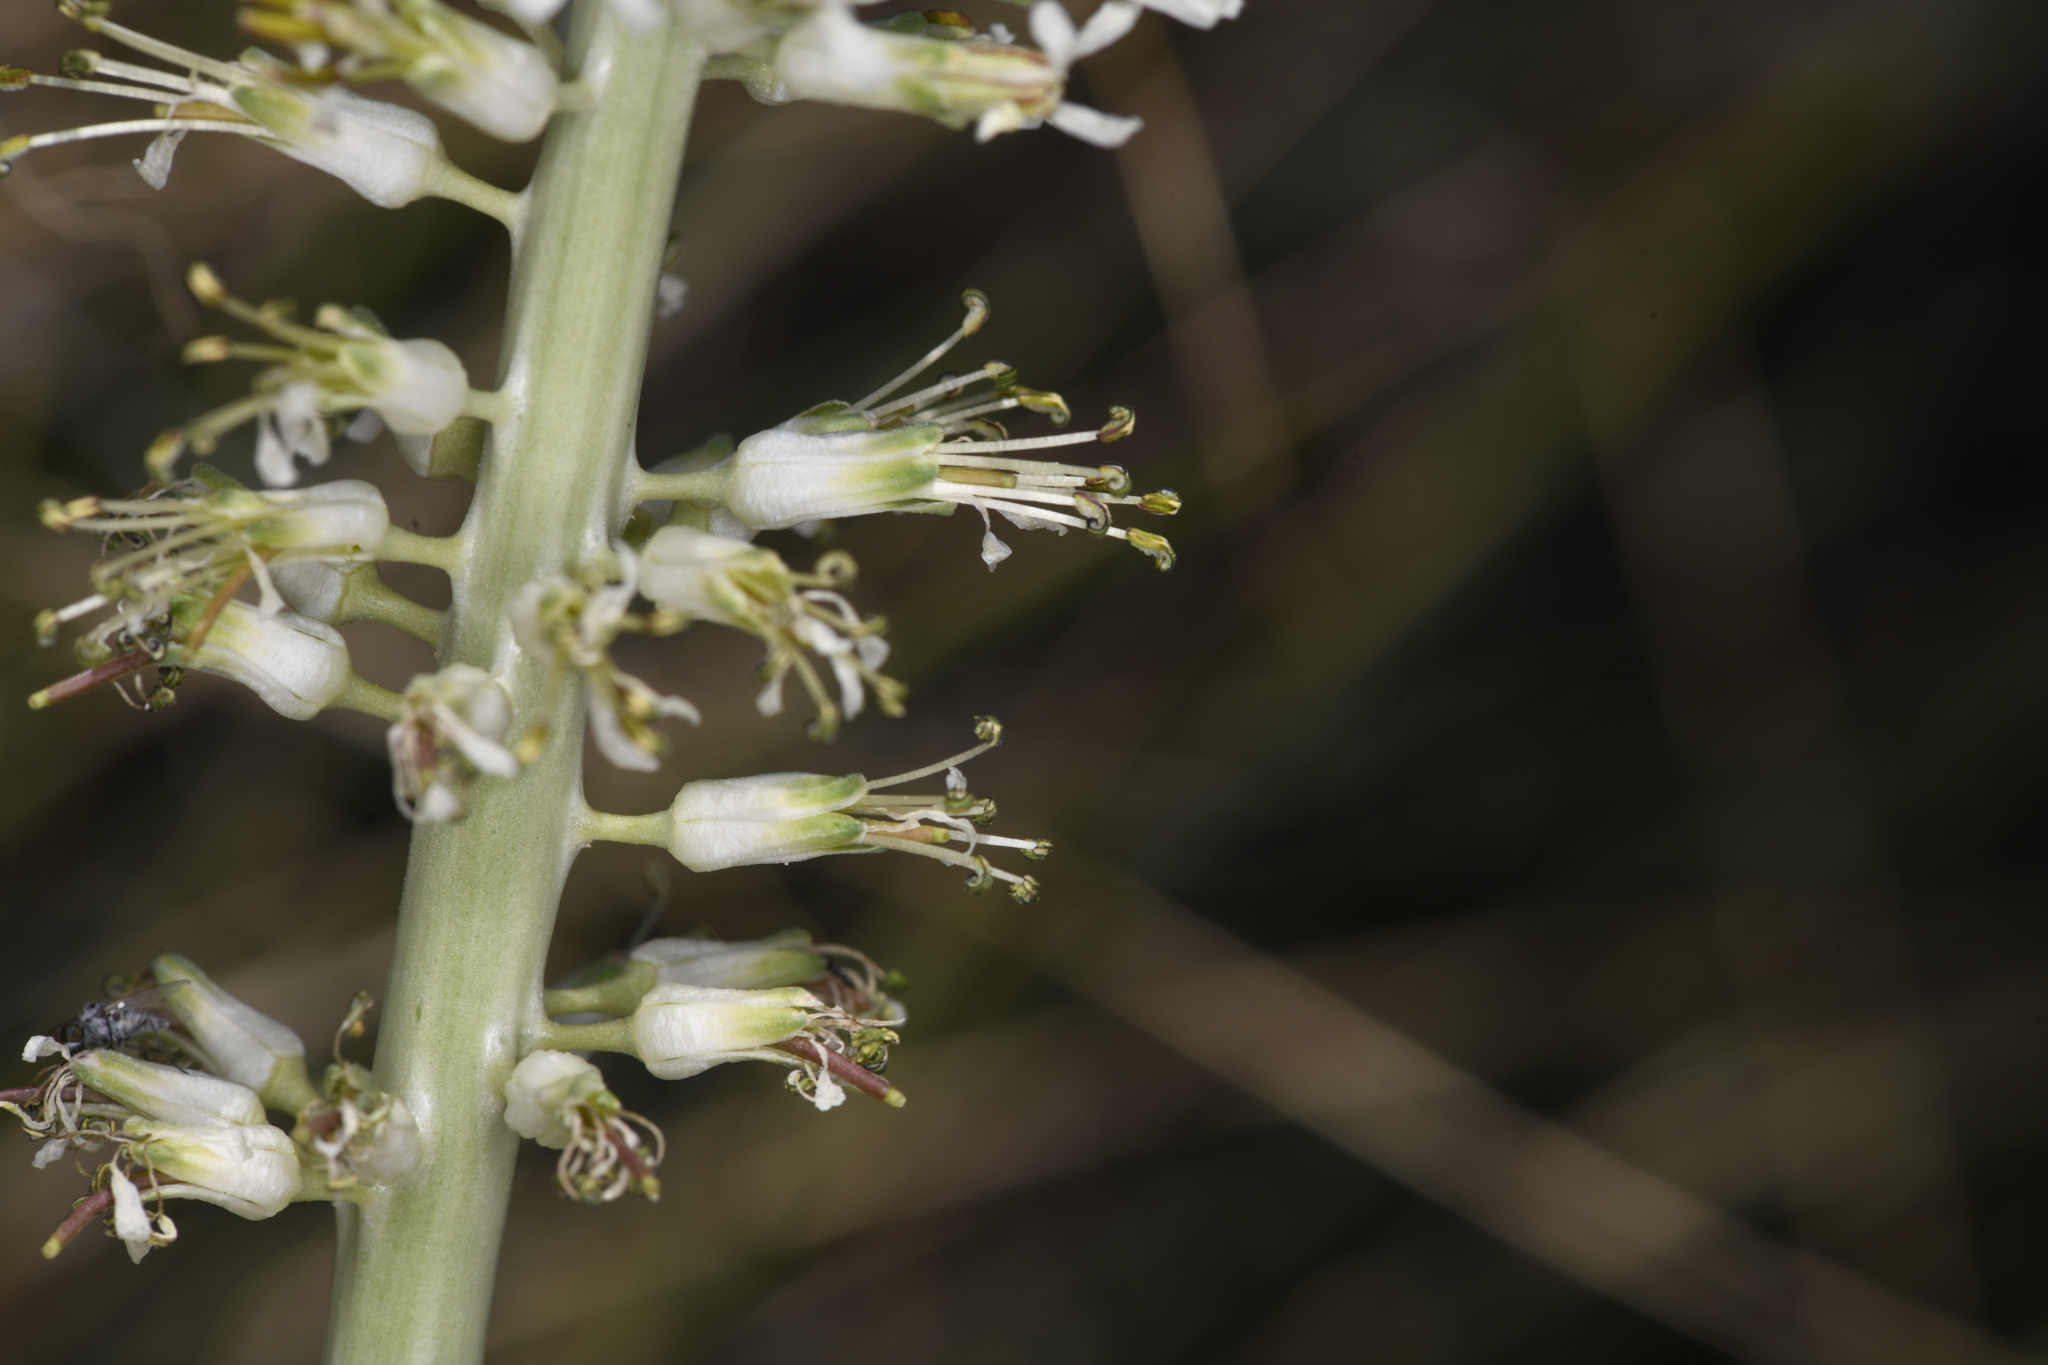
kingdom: Plantae
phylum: Tracheophyta
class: Magnoliopsida
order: Brassicales
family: Brassicaceae
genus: Thelypodium
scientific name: Thelypodium milleflorum
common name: Many-flowered thelypody
